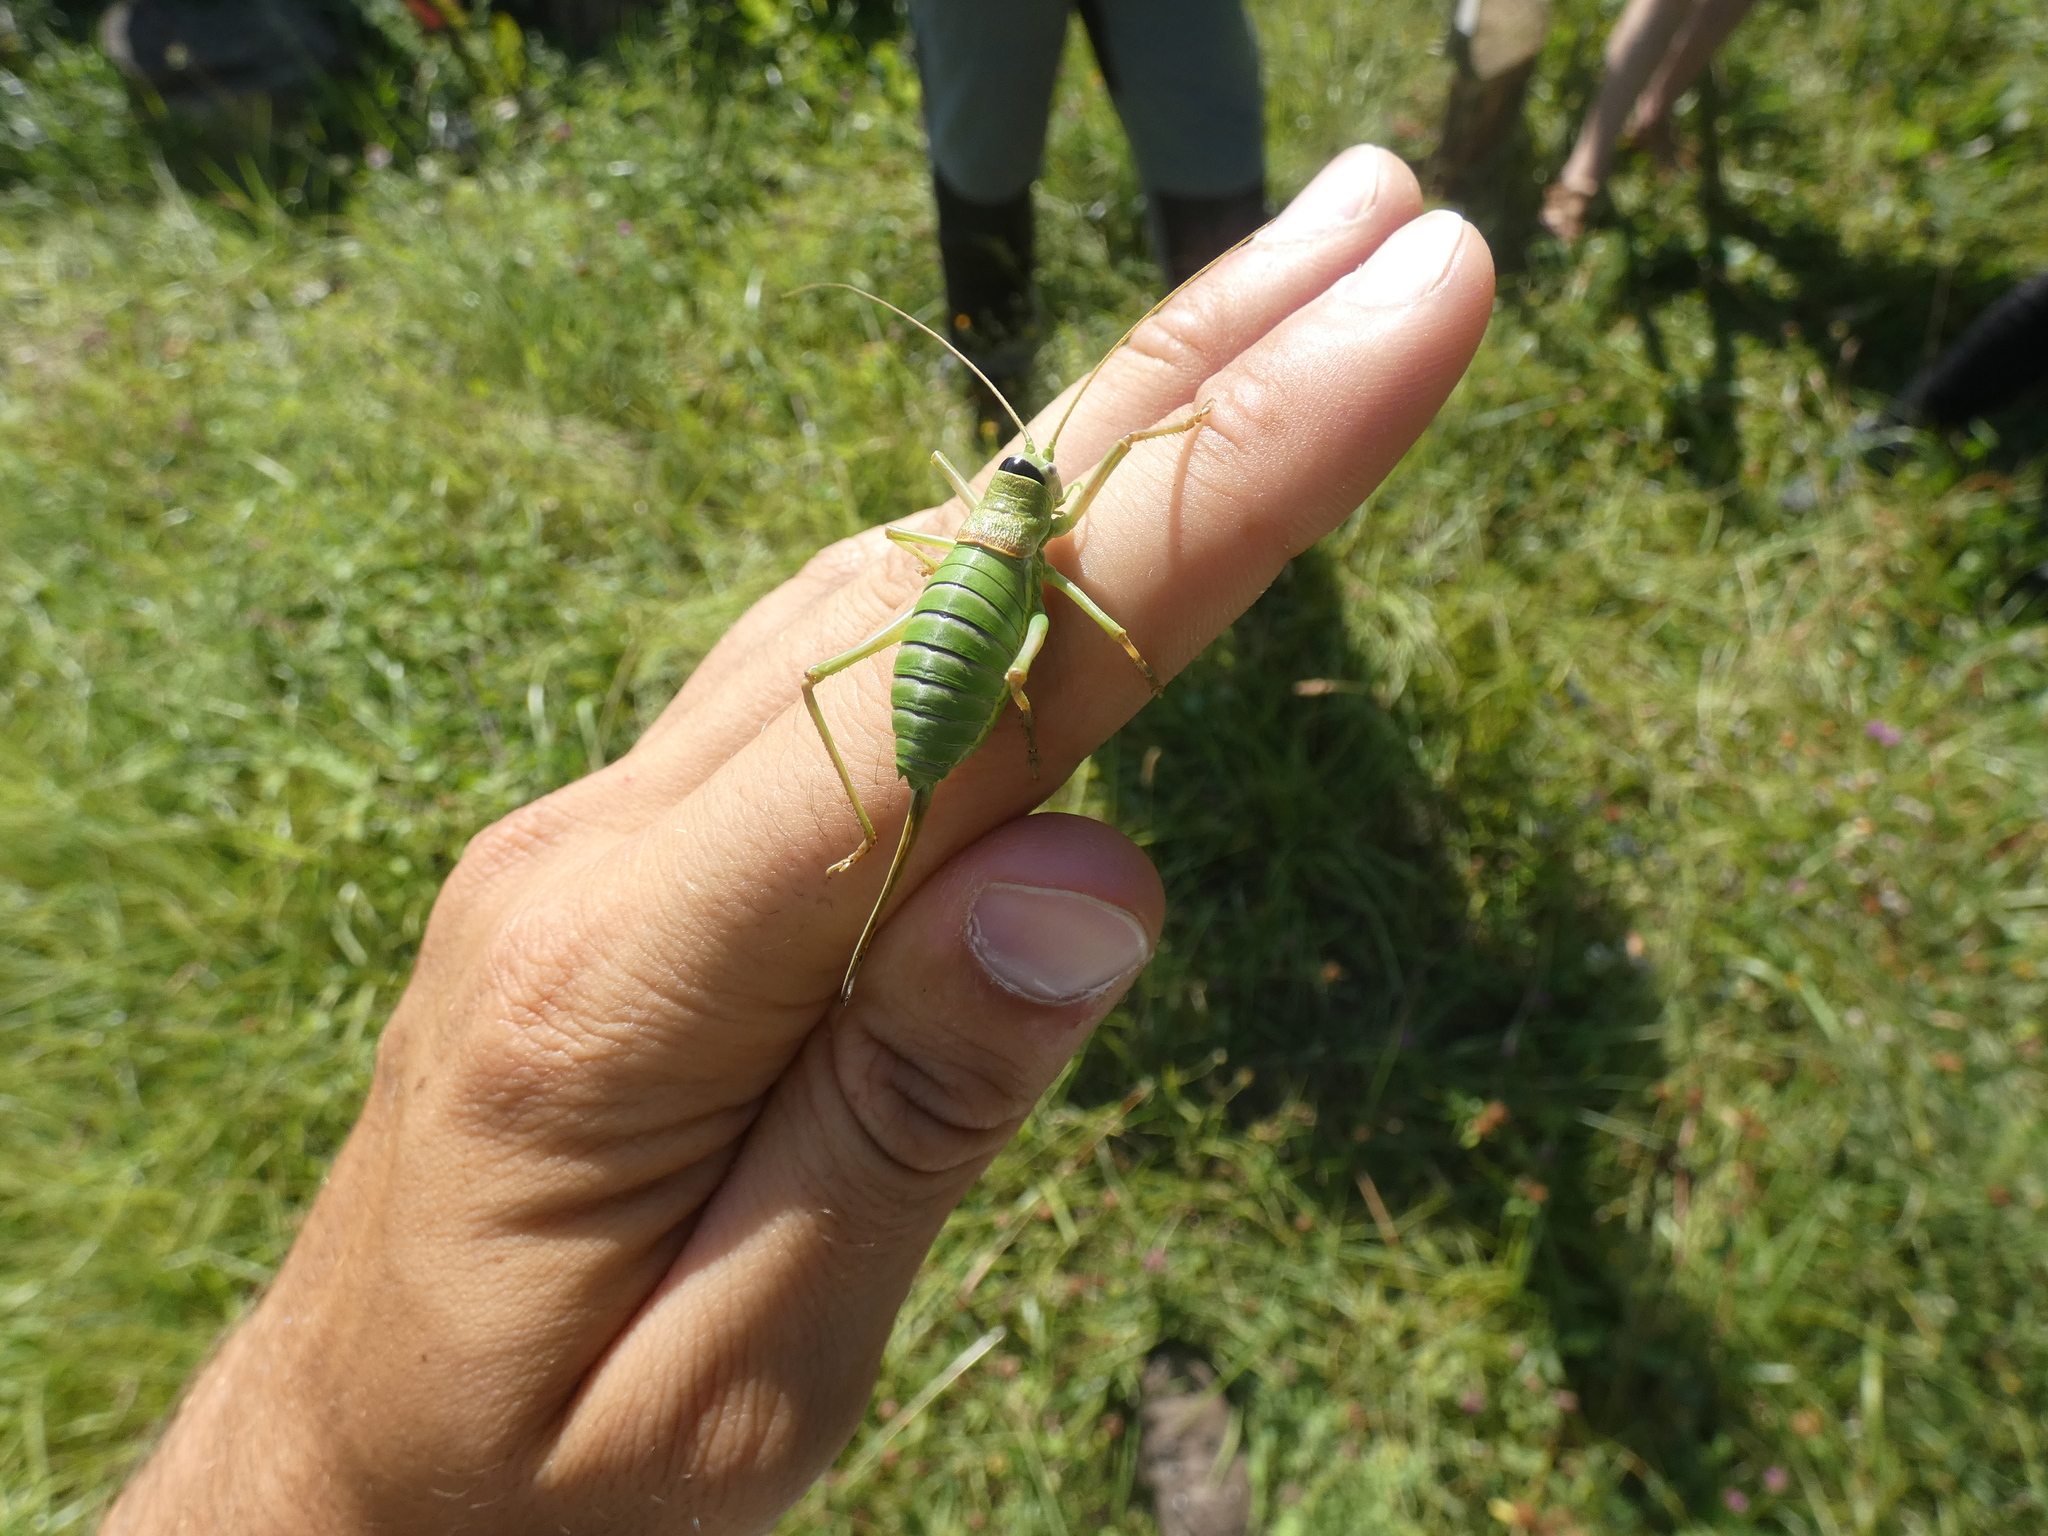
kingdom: Animalia
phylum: Arthropoda
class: Insecta
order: Orthoptera
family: Tettigoniidae
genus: Ephippiger
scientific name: Ephippiger diurnus
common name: Western saddle bush-cricket
